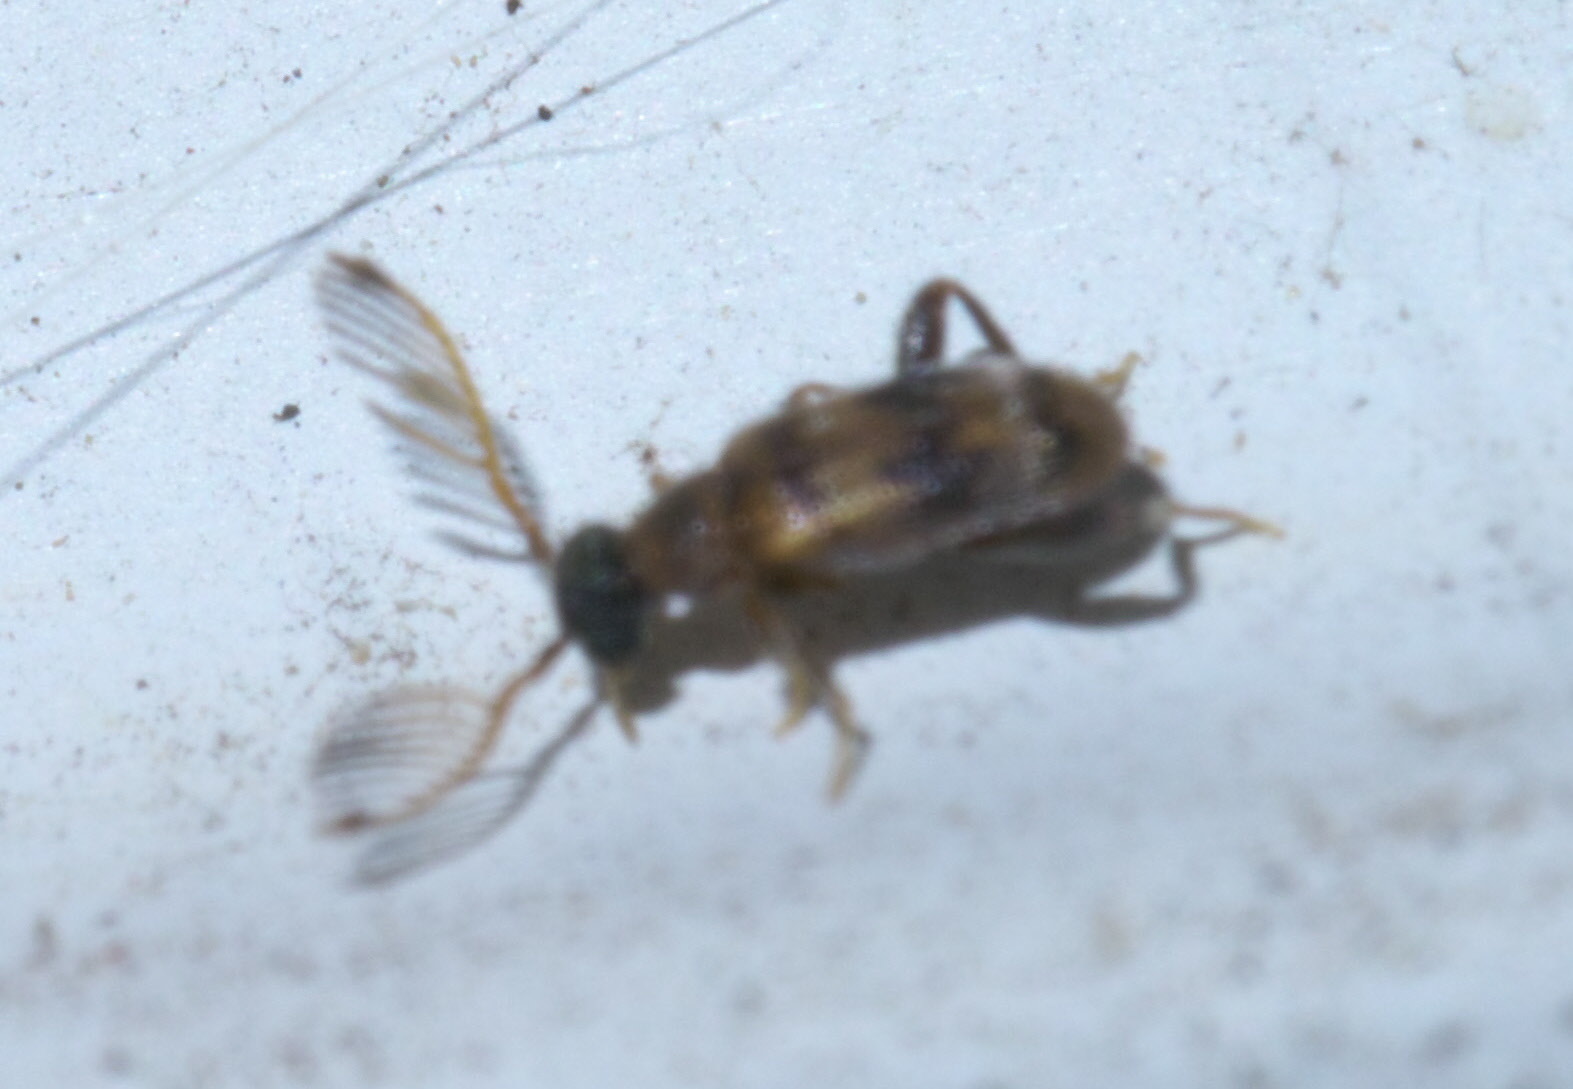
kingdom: Animalia
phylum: Arthropoda
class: Insecta
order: Coleoptera
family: Aderidae
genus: Emelinus
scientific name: Emelinus melsheimeri
